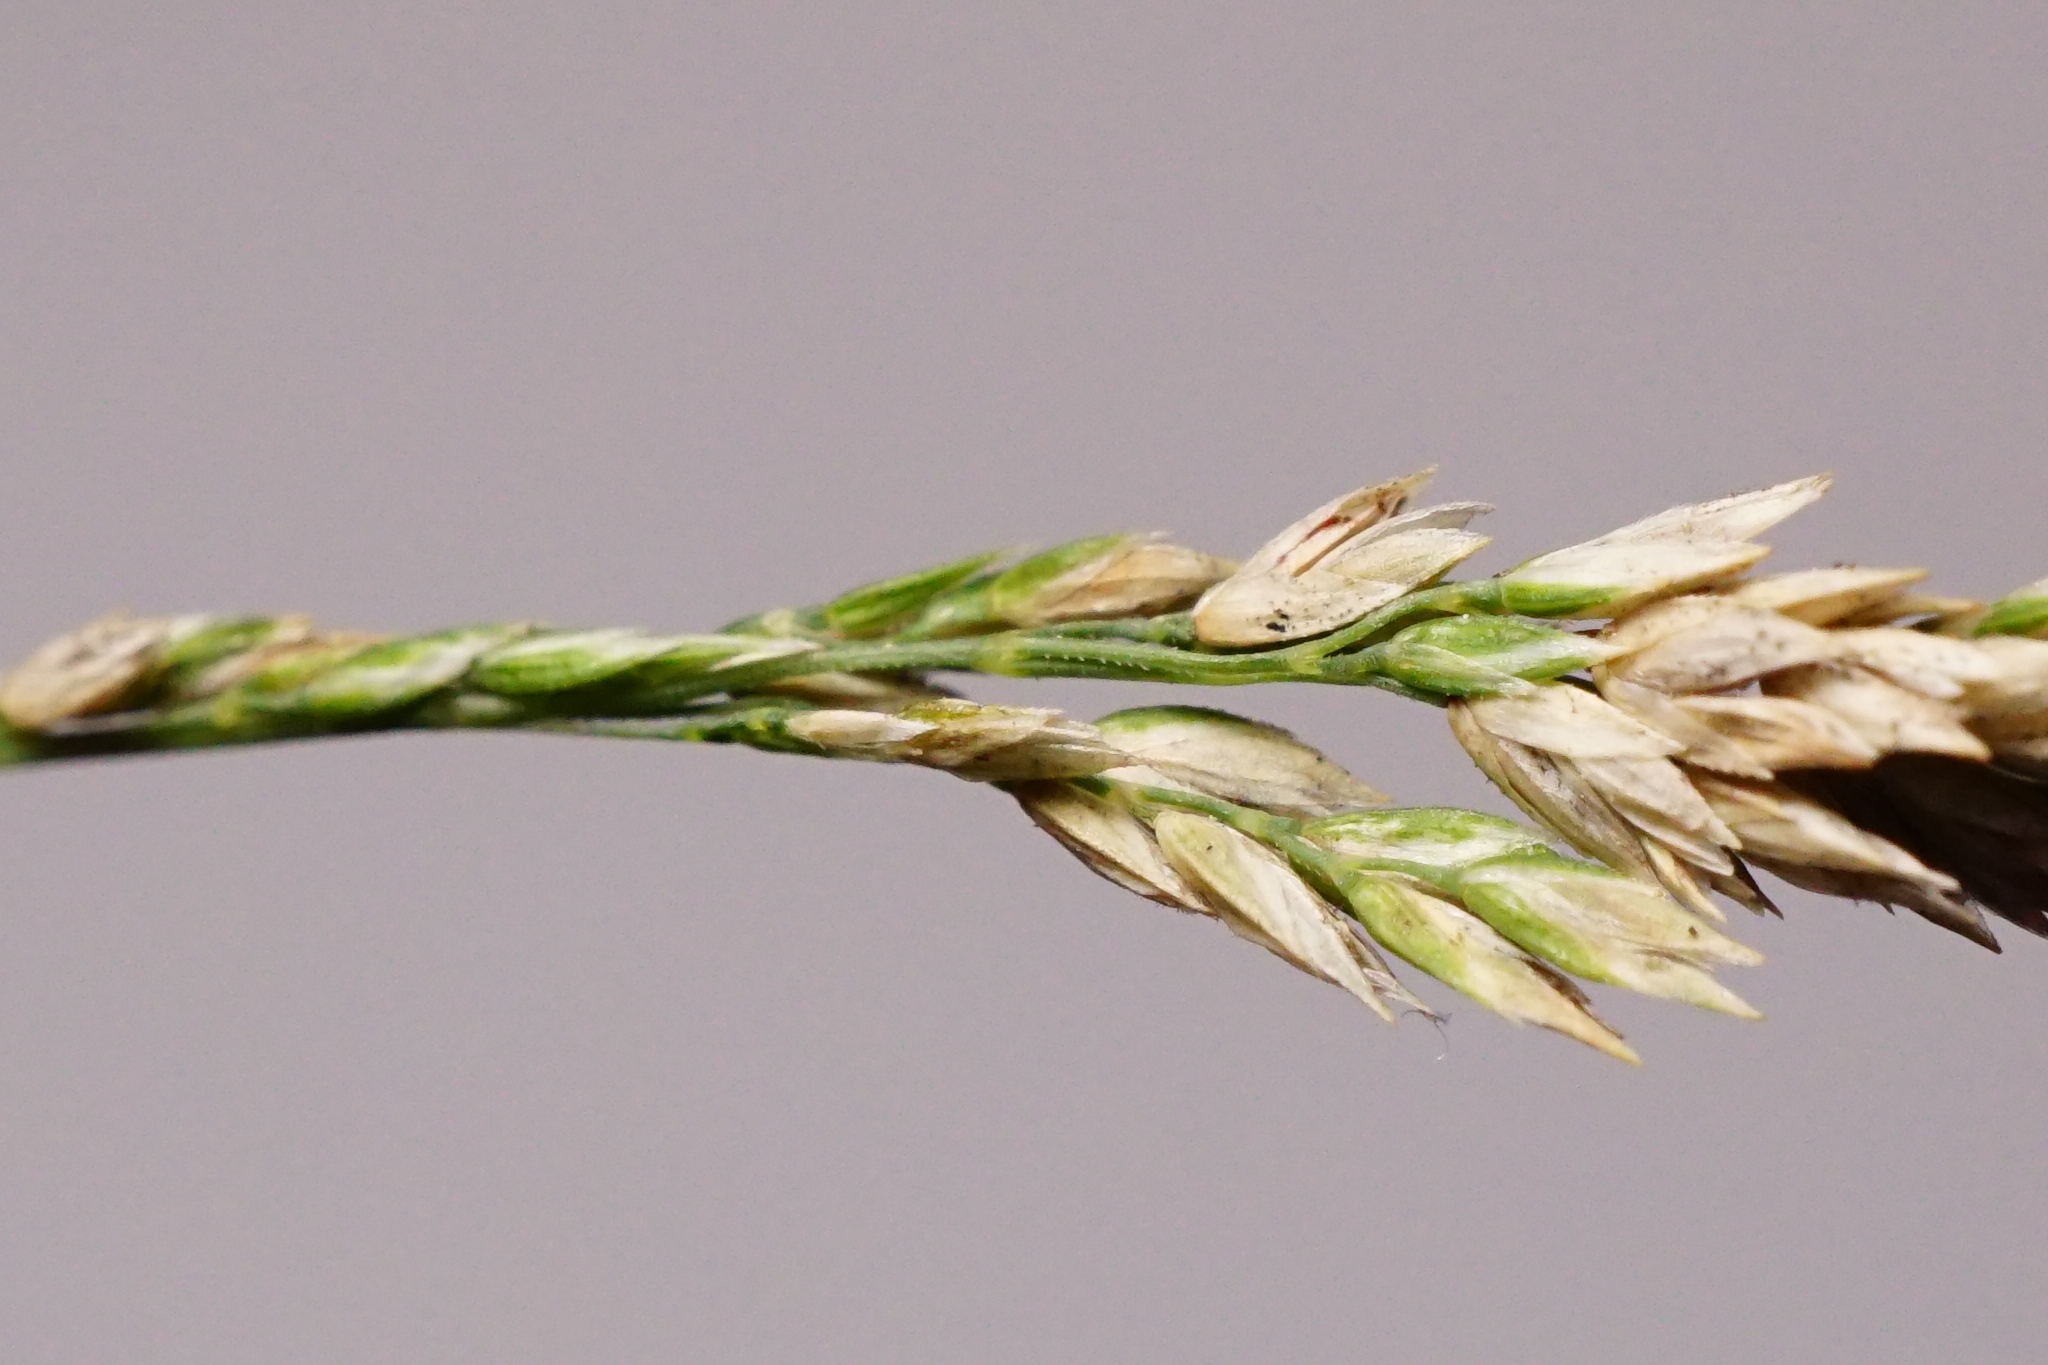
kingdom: Plantae
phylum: Tracheophyta
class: Liliopsida
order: Poales
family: Poaceae
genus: Poa
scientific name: Poa angustifolia
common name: Narrow-leaved meadow-grass
